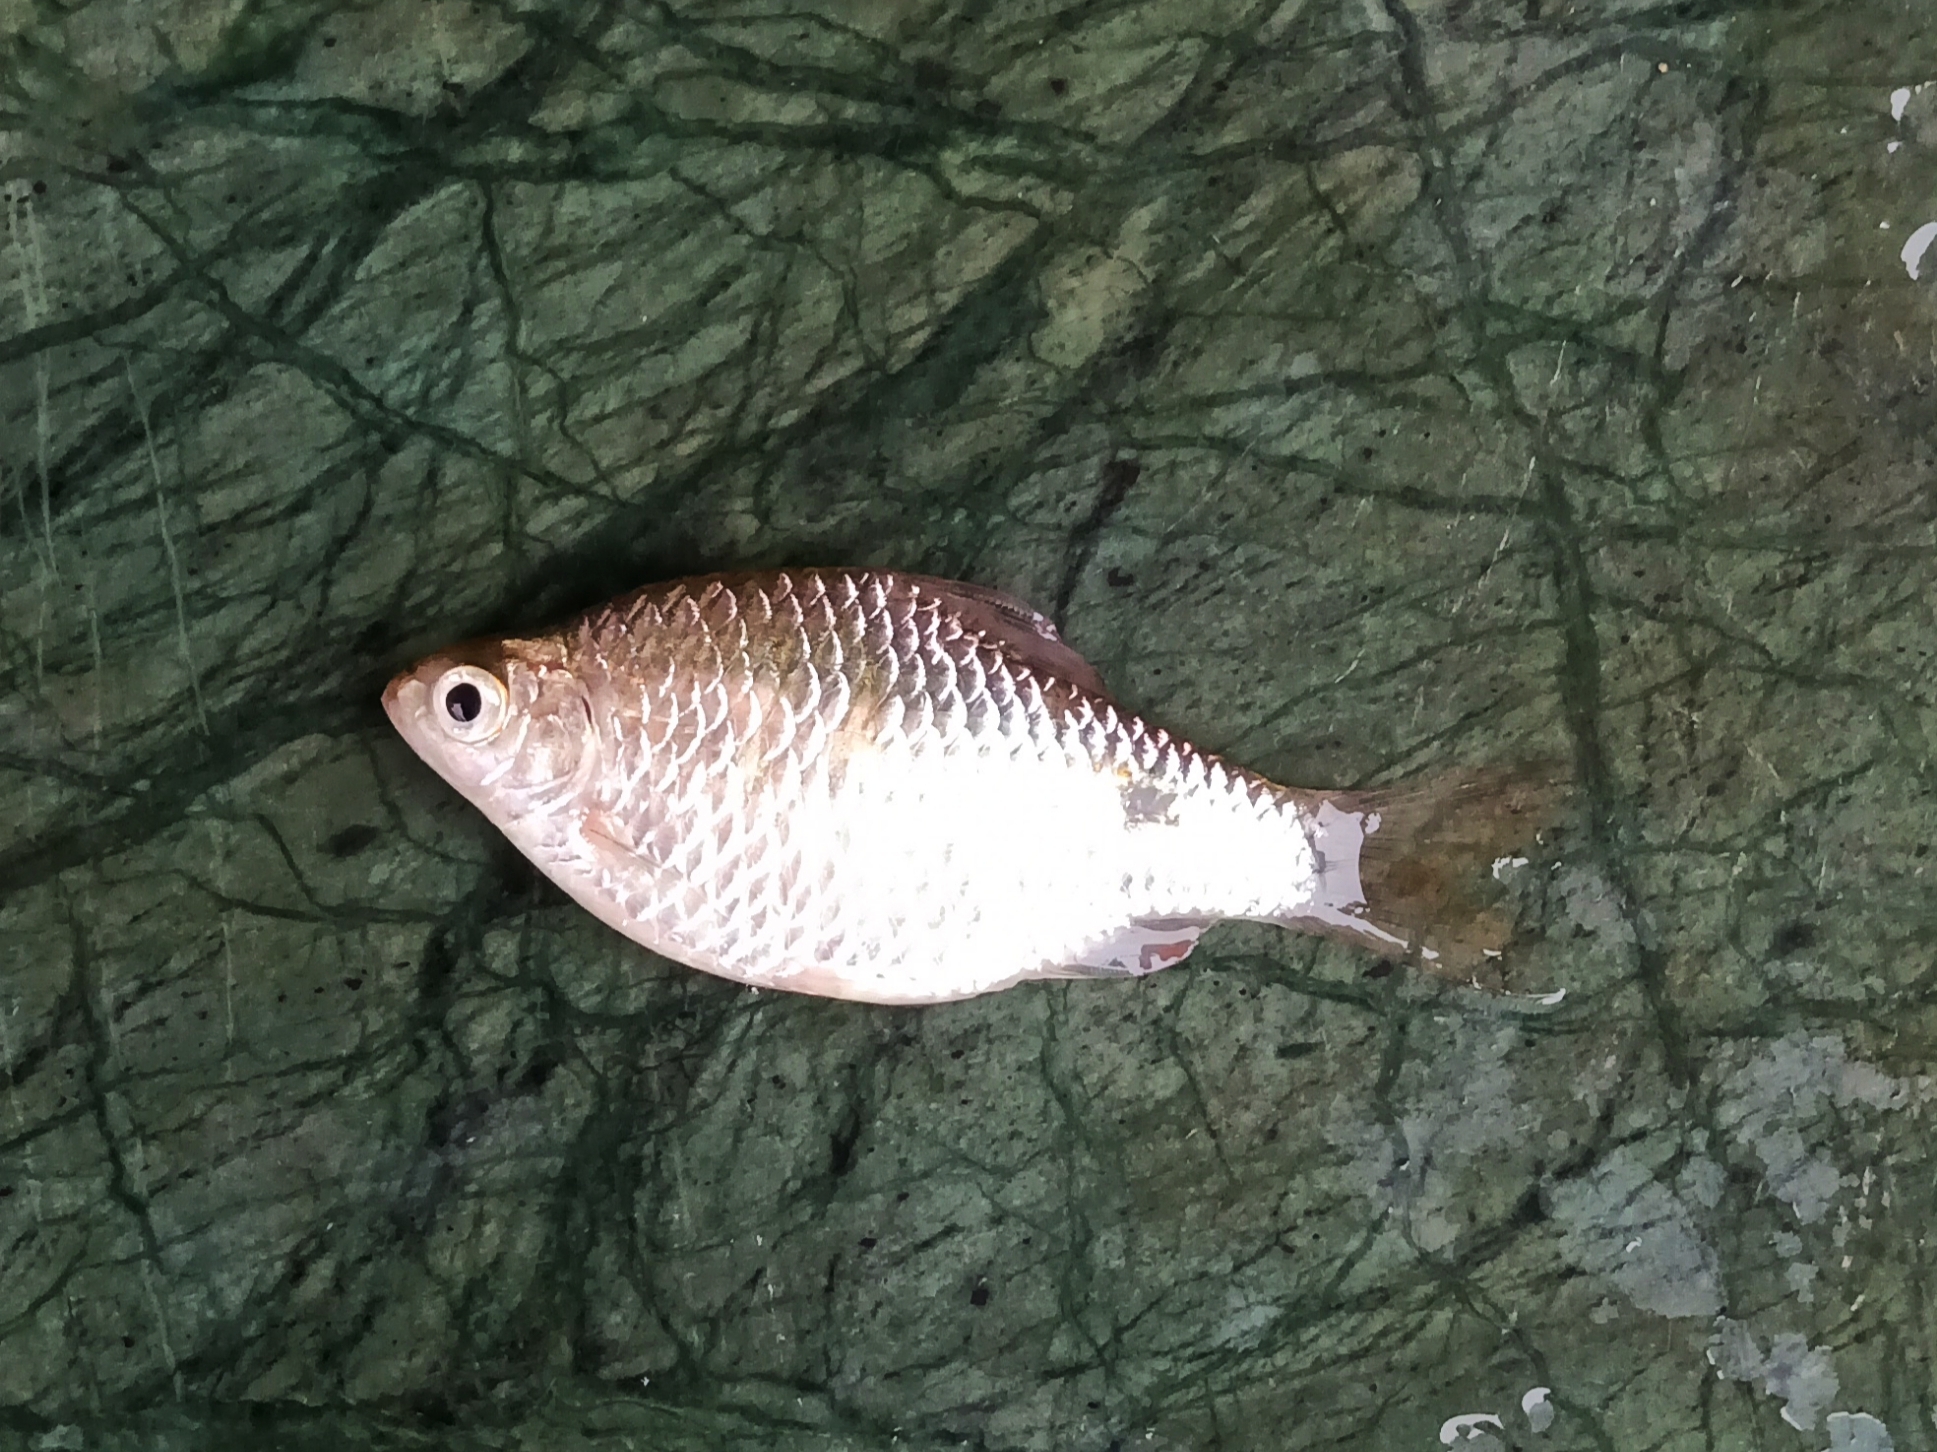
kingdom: Animalia
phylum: Chordata
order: Cypriniformes
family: Cyprinidae
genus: Puntius
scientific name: Puntius terio
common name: Onespot barb
